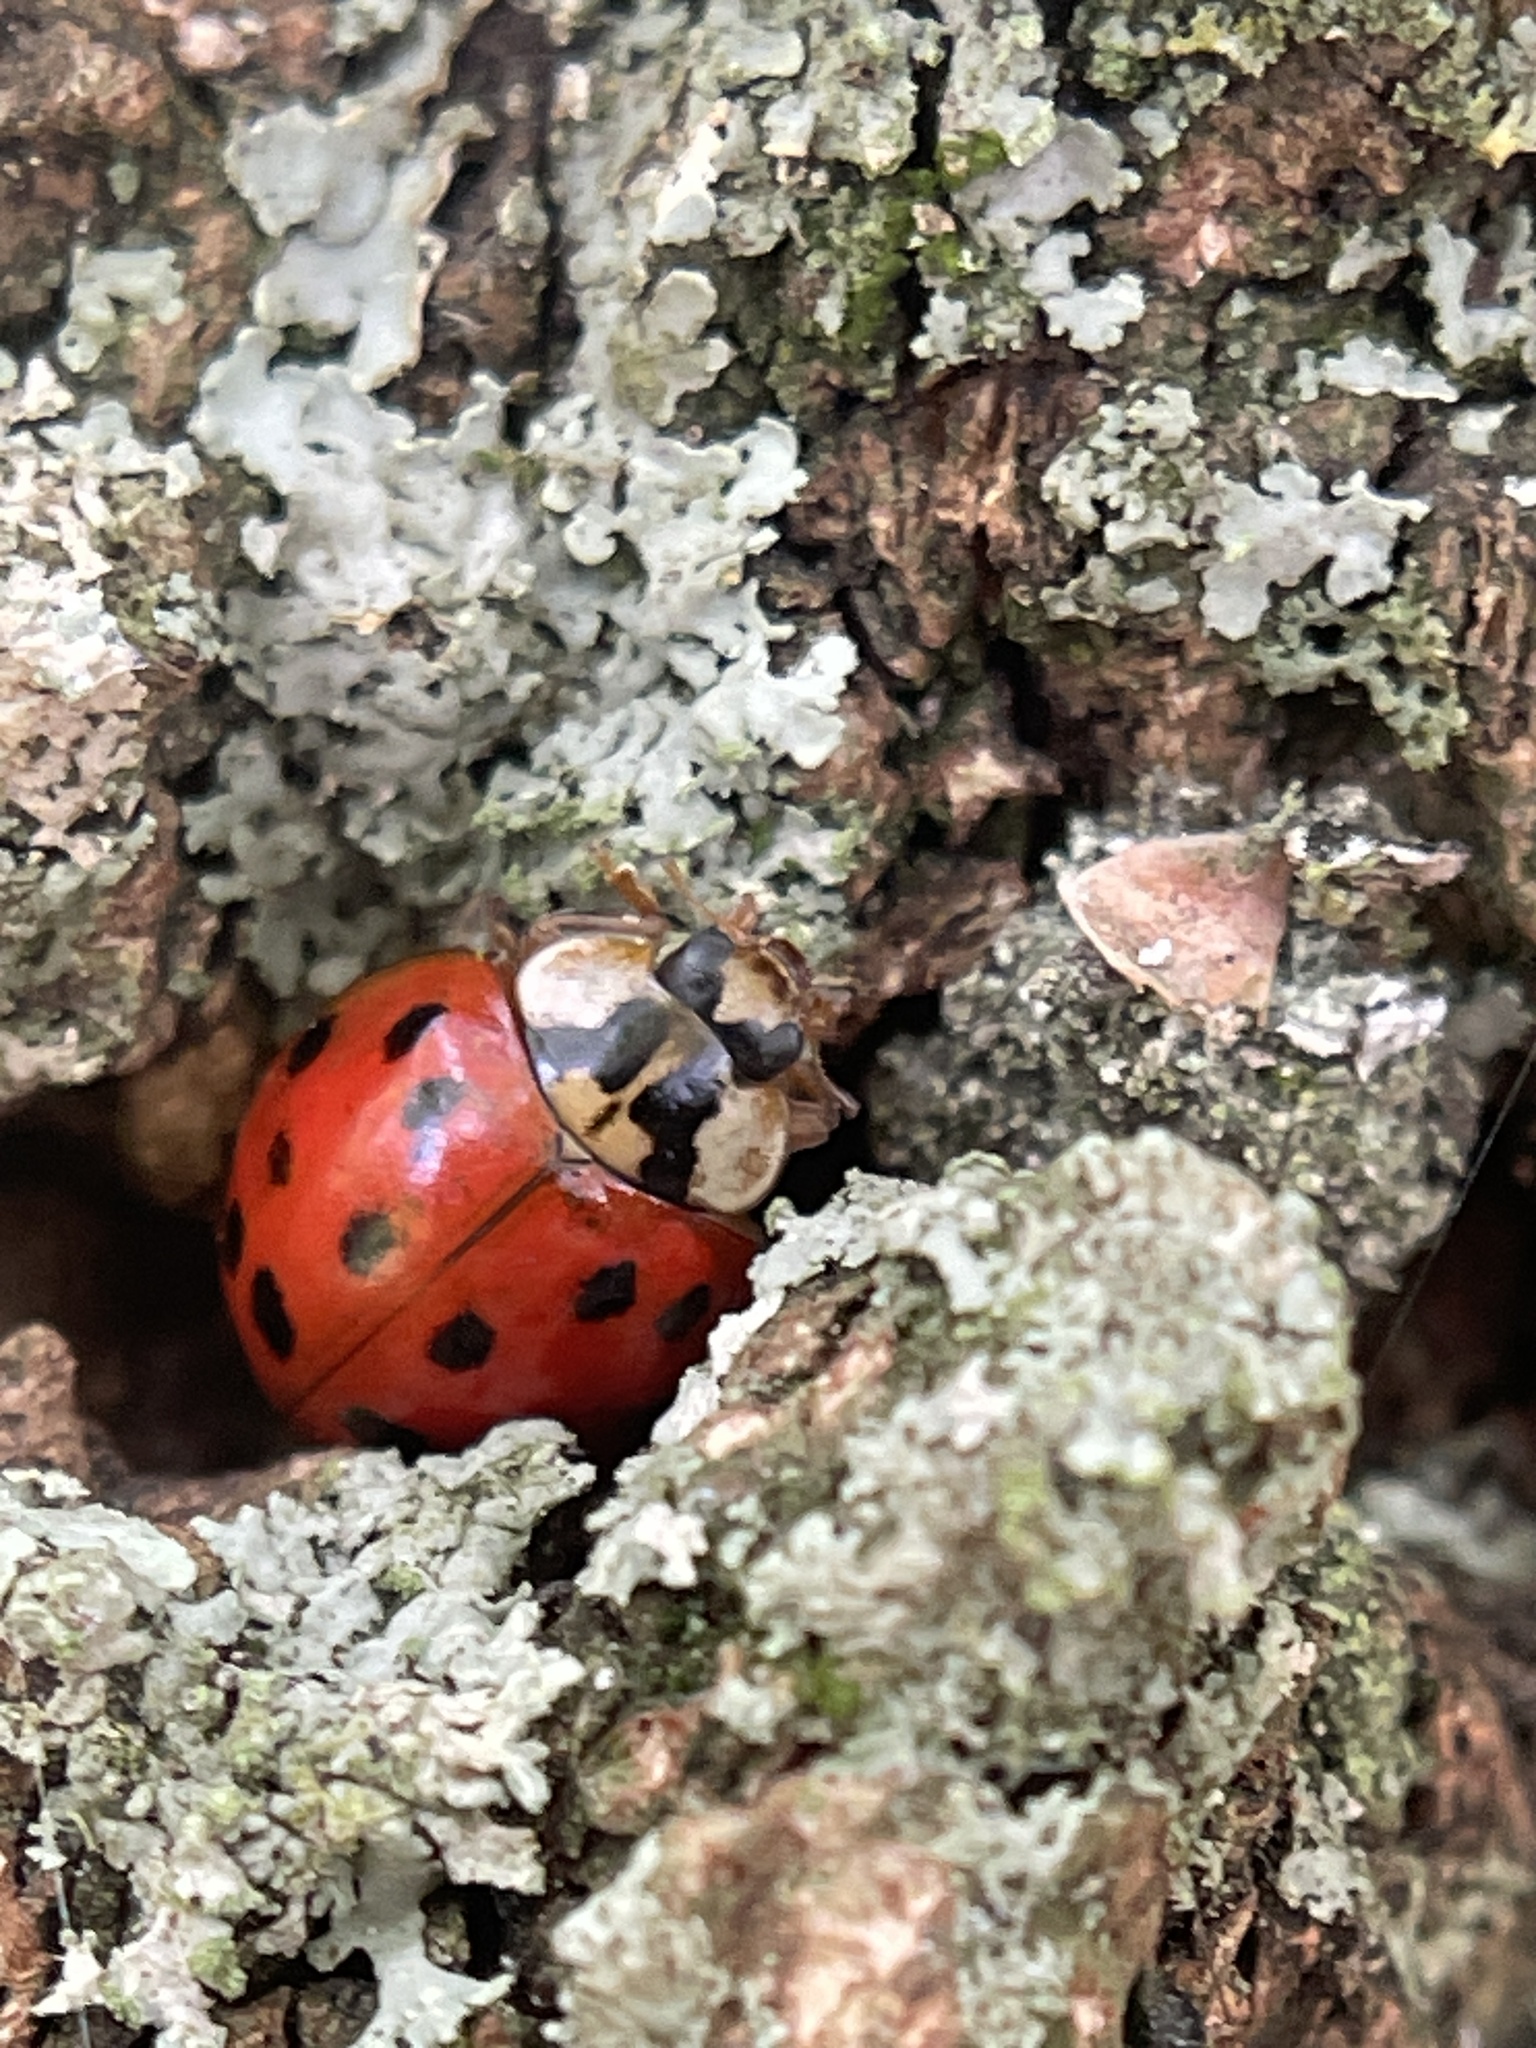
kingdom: Animalia
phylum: Arthropoda
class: Insecta
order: Coleoptera
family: Coccinellidae
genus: Harmonia
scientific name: Harmonia axyridis
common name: Harlequin ladybird
